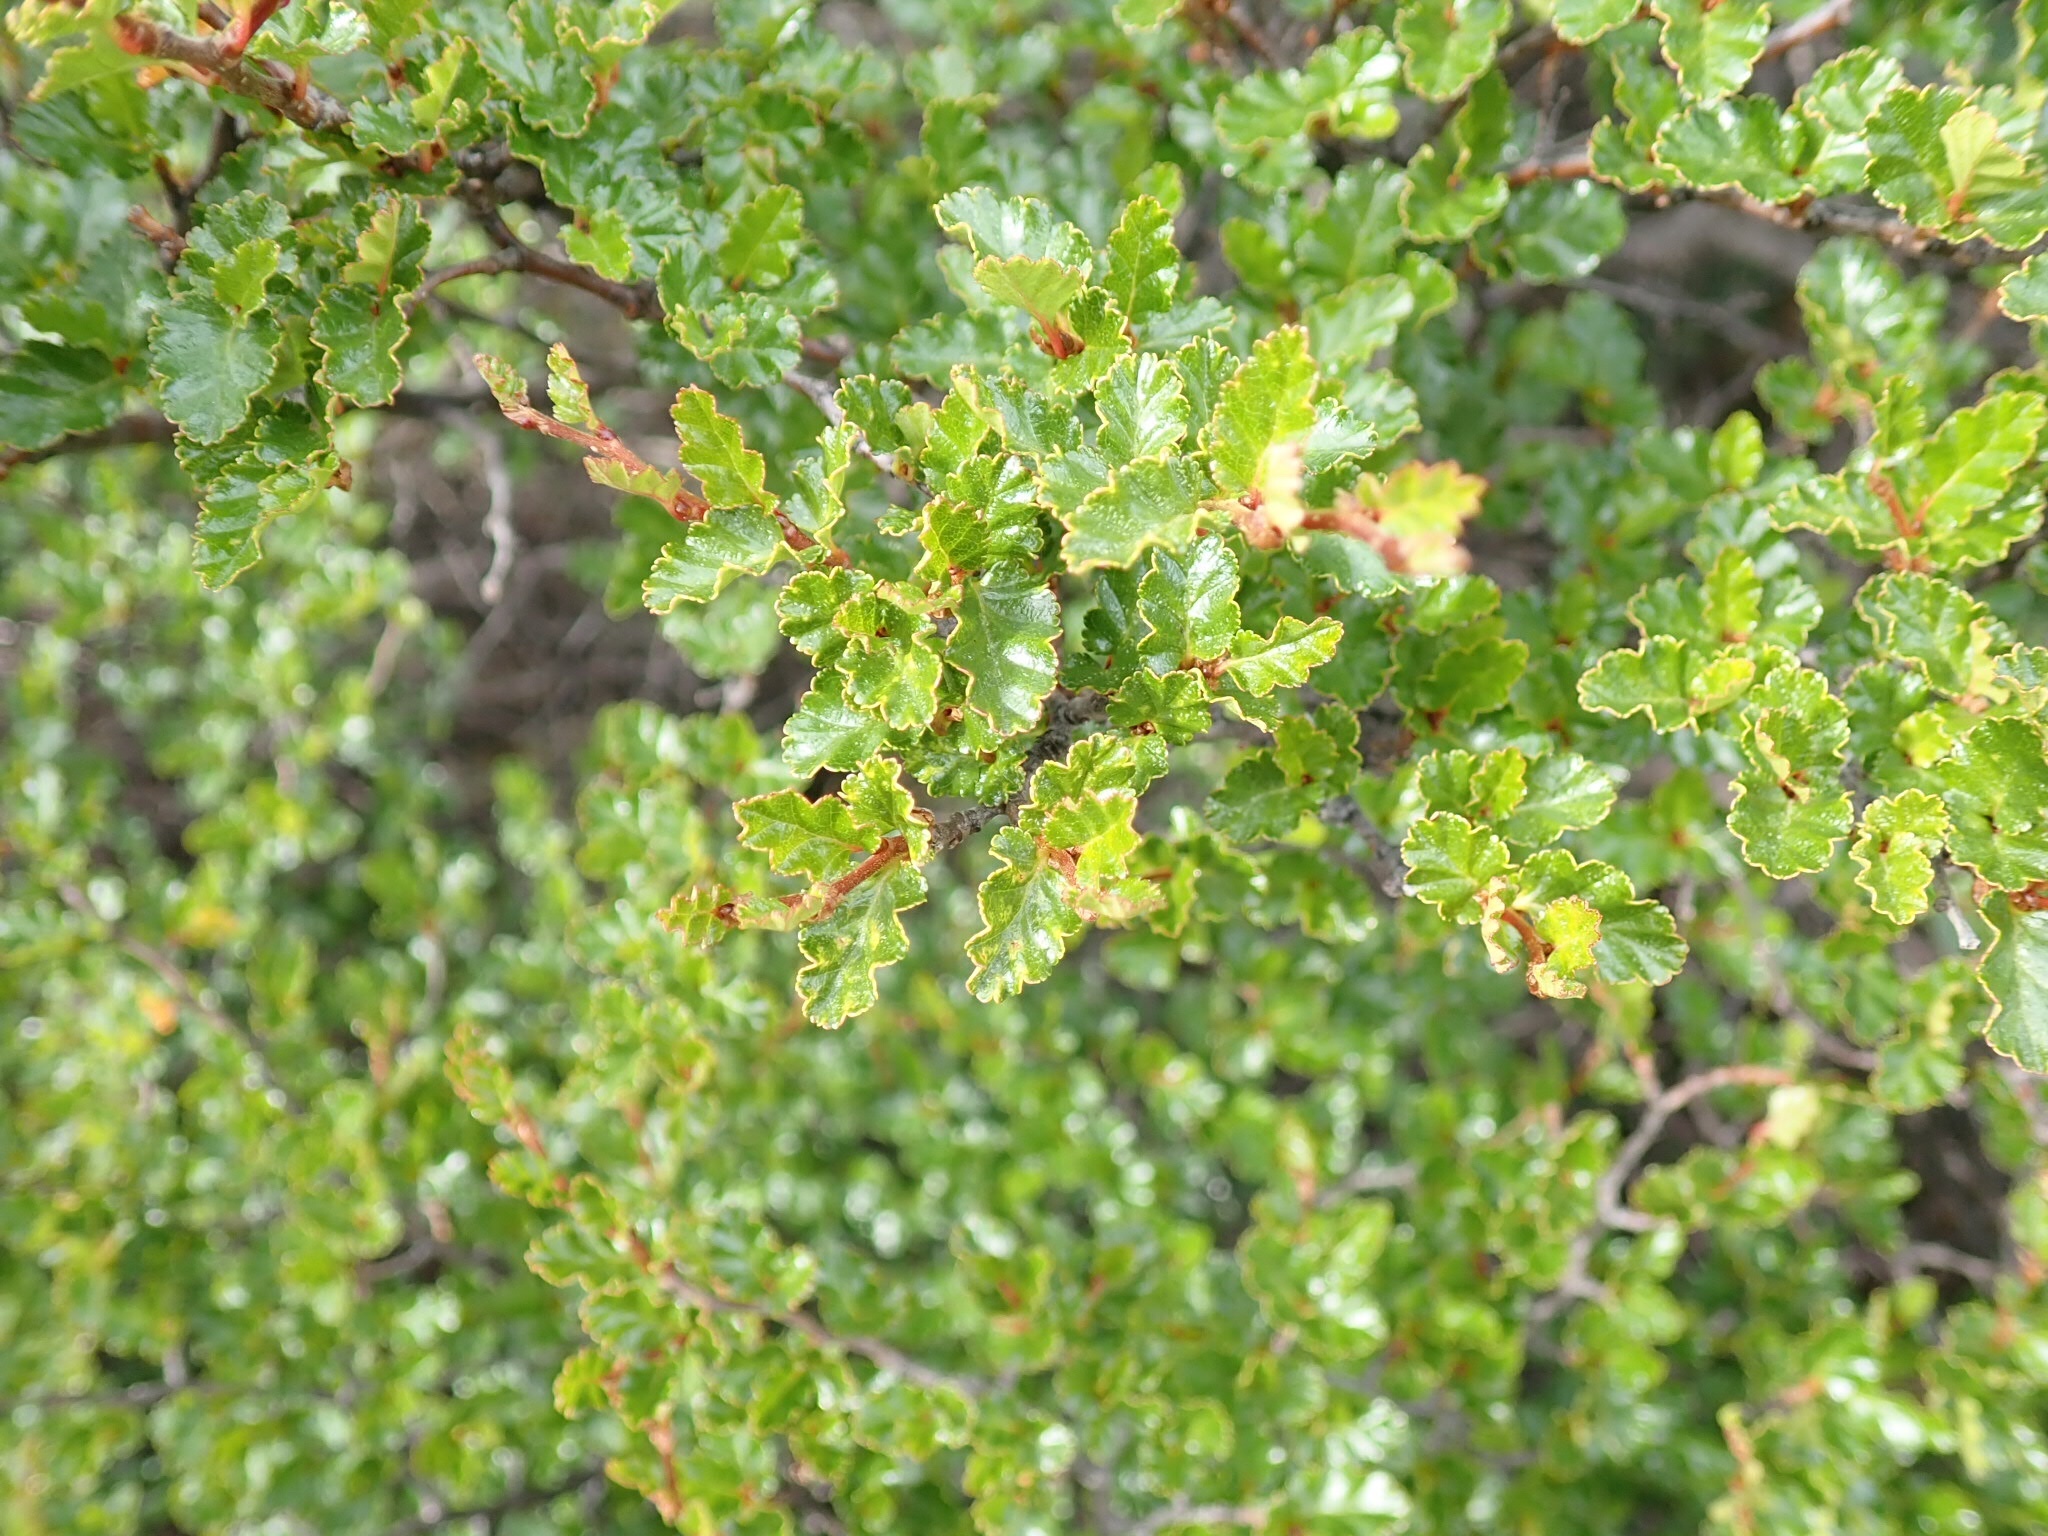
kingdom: Plantae
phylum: Tracheophyta
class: Magnoliopsida
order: Fagales
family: Nothofagaceae
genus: Nothofagus
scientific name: Nothofagus antarctica
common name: Antarctic beech
